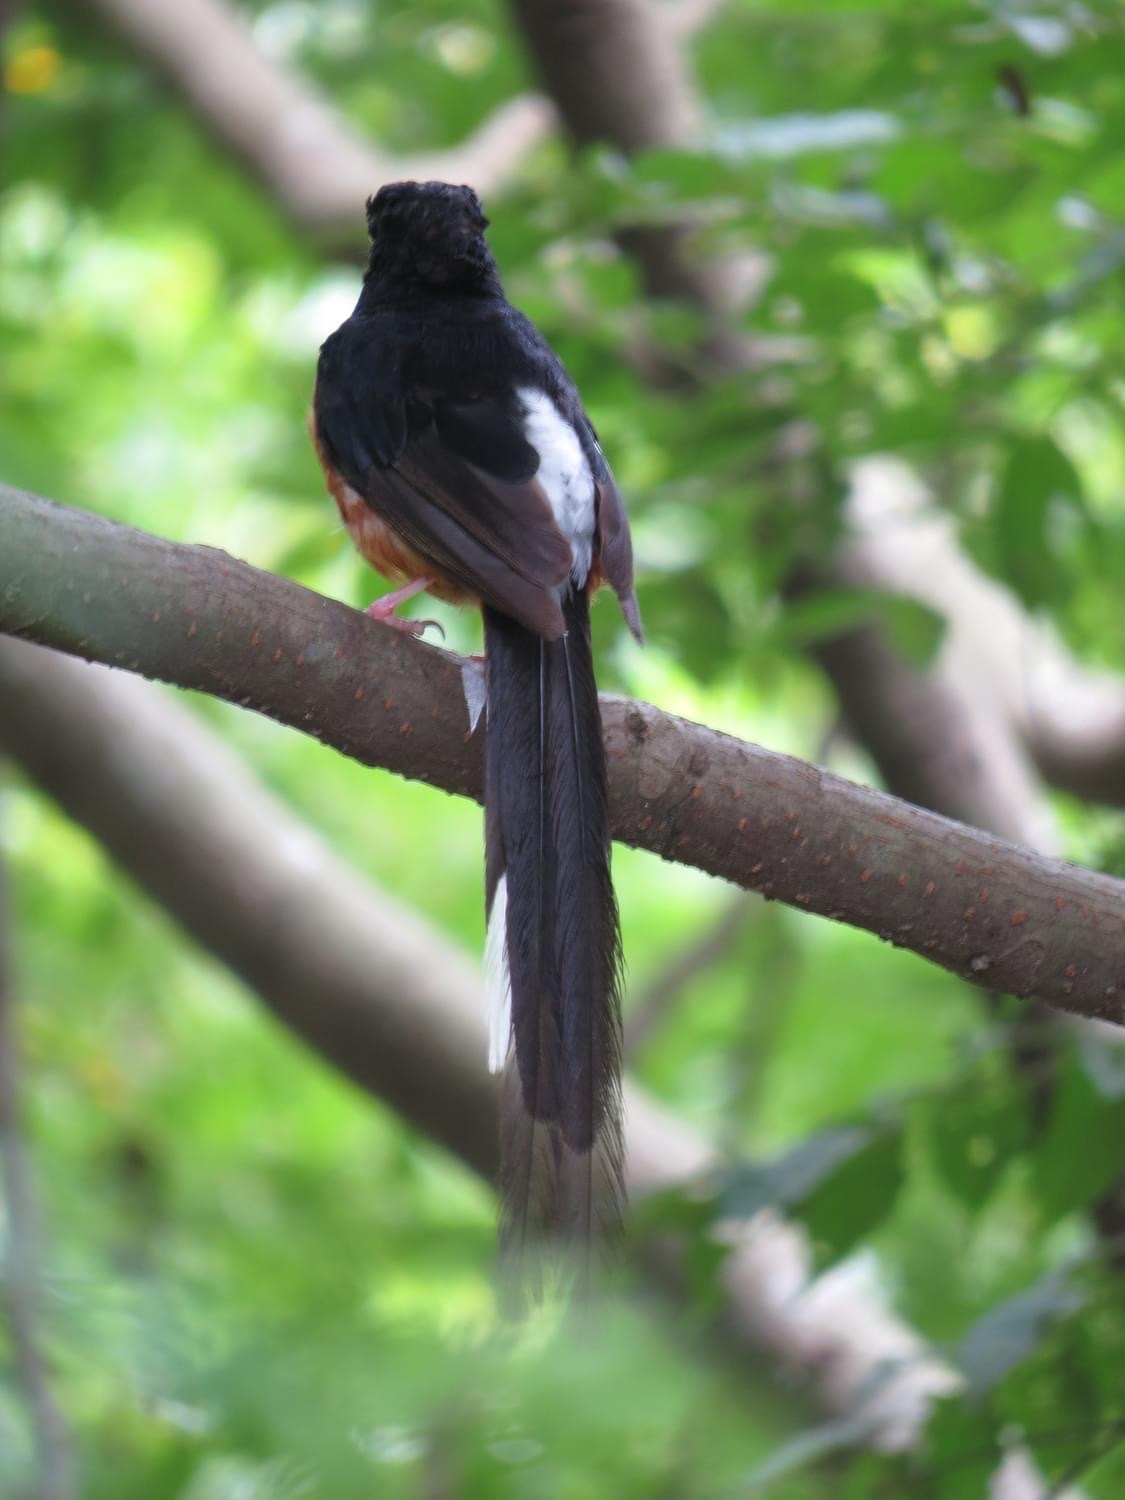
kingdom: Animalia
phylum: Chordata
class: Aves
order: Passeriformes
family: Muscicapidae
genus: Copsychus
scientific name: Copsychus malabaricus
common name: White-rumped shama
